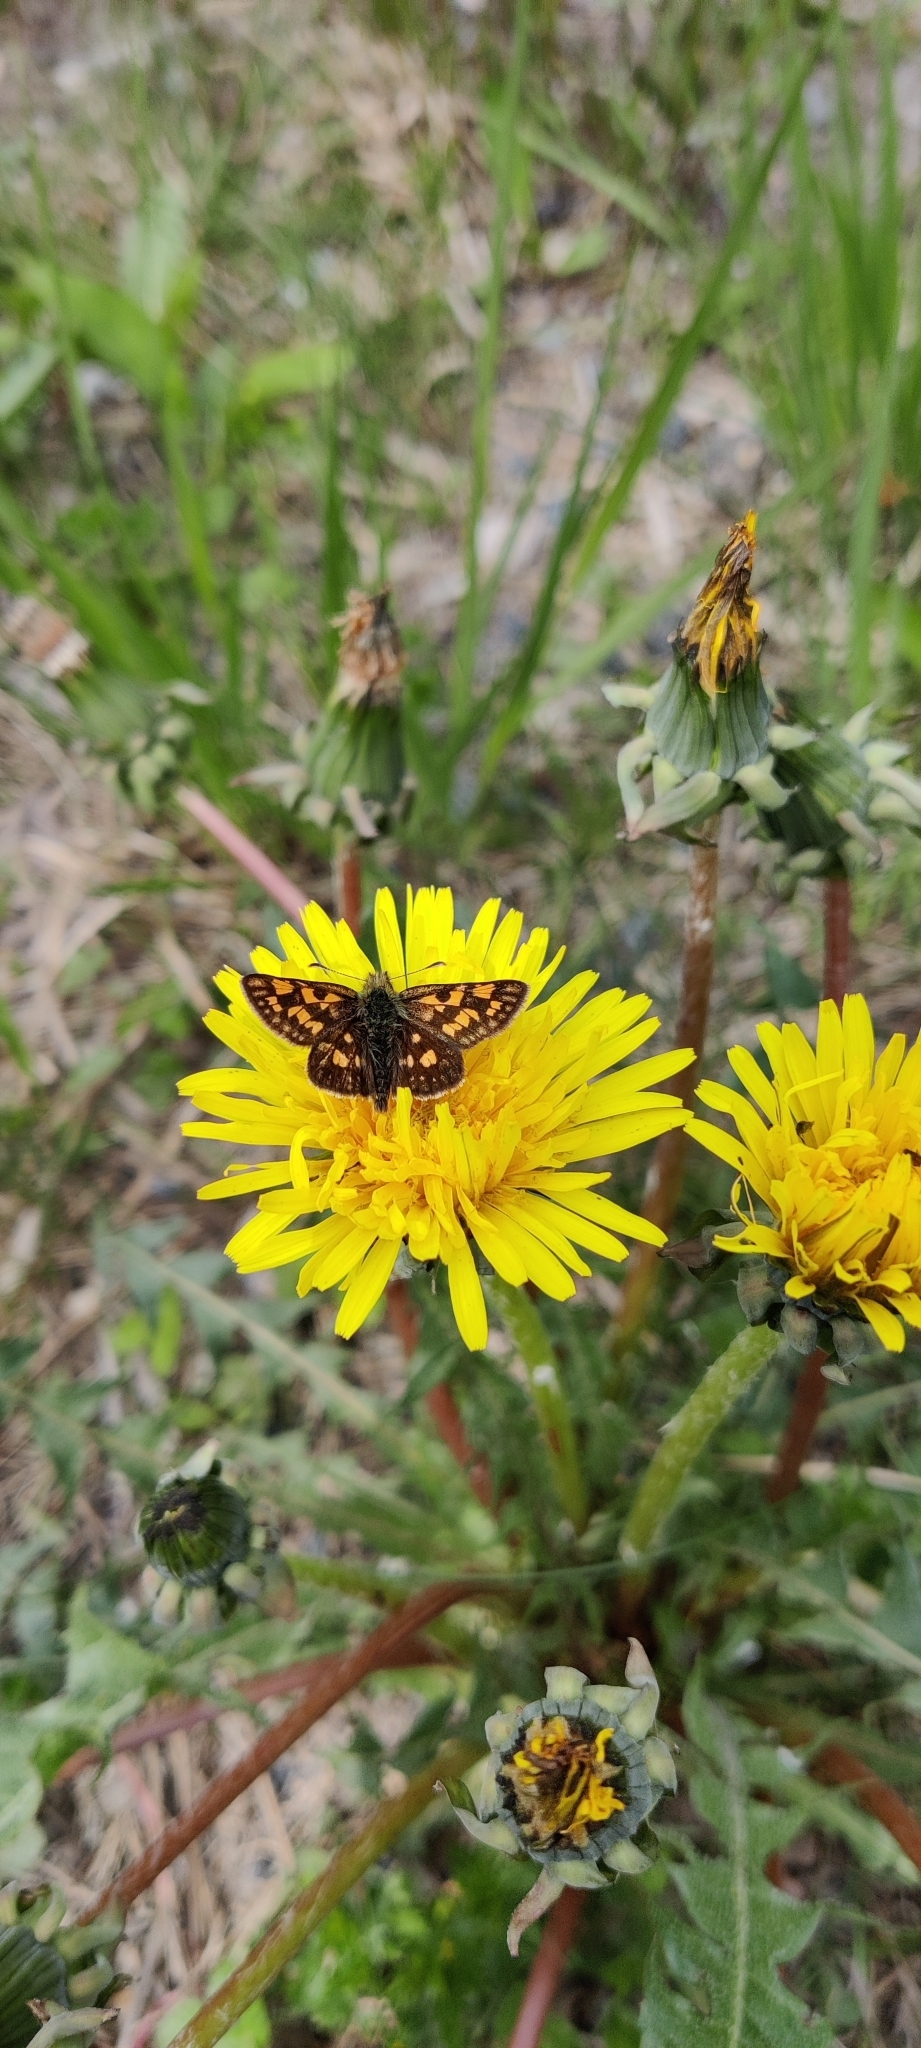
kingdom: Animalia
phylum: Arthropoda
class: Insecta
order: Lepidoptera
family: Hesperiidae
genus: Carterocephalus
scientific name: Carterocephalus palaemon
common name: Chequered skipper
